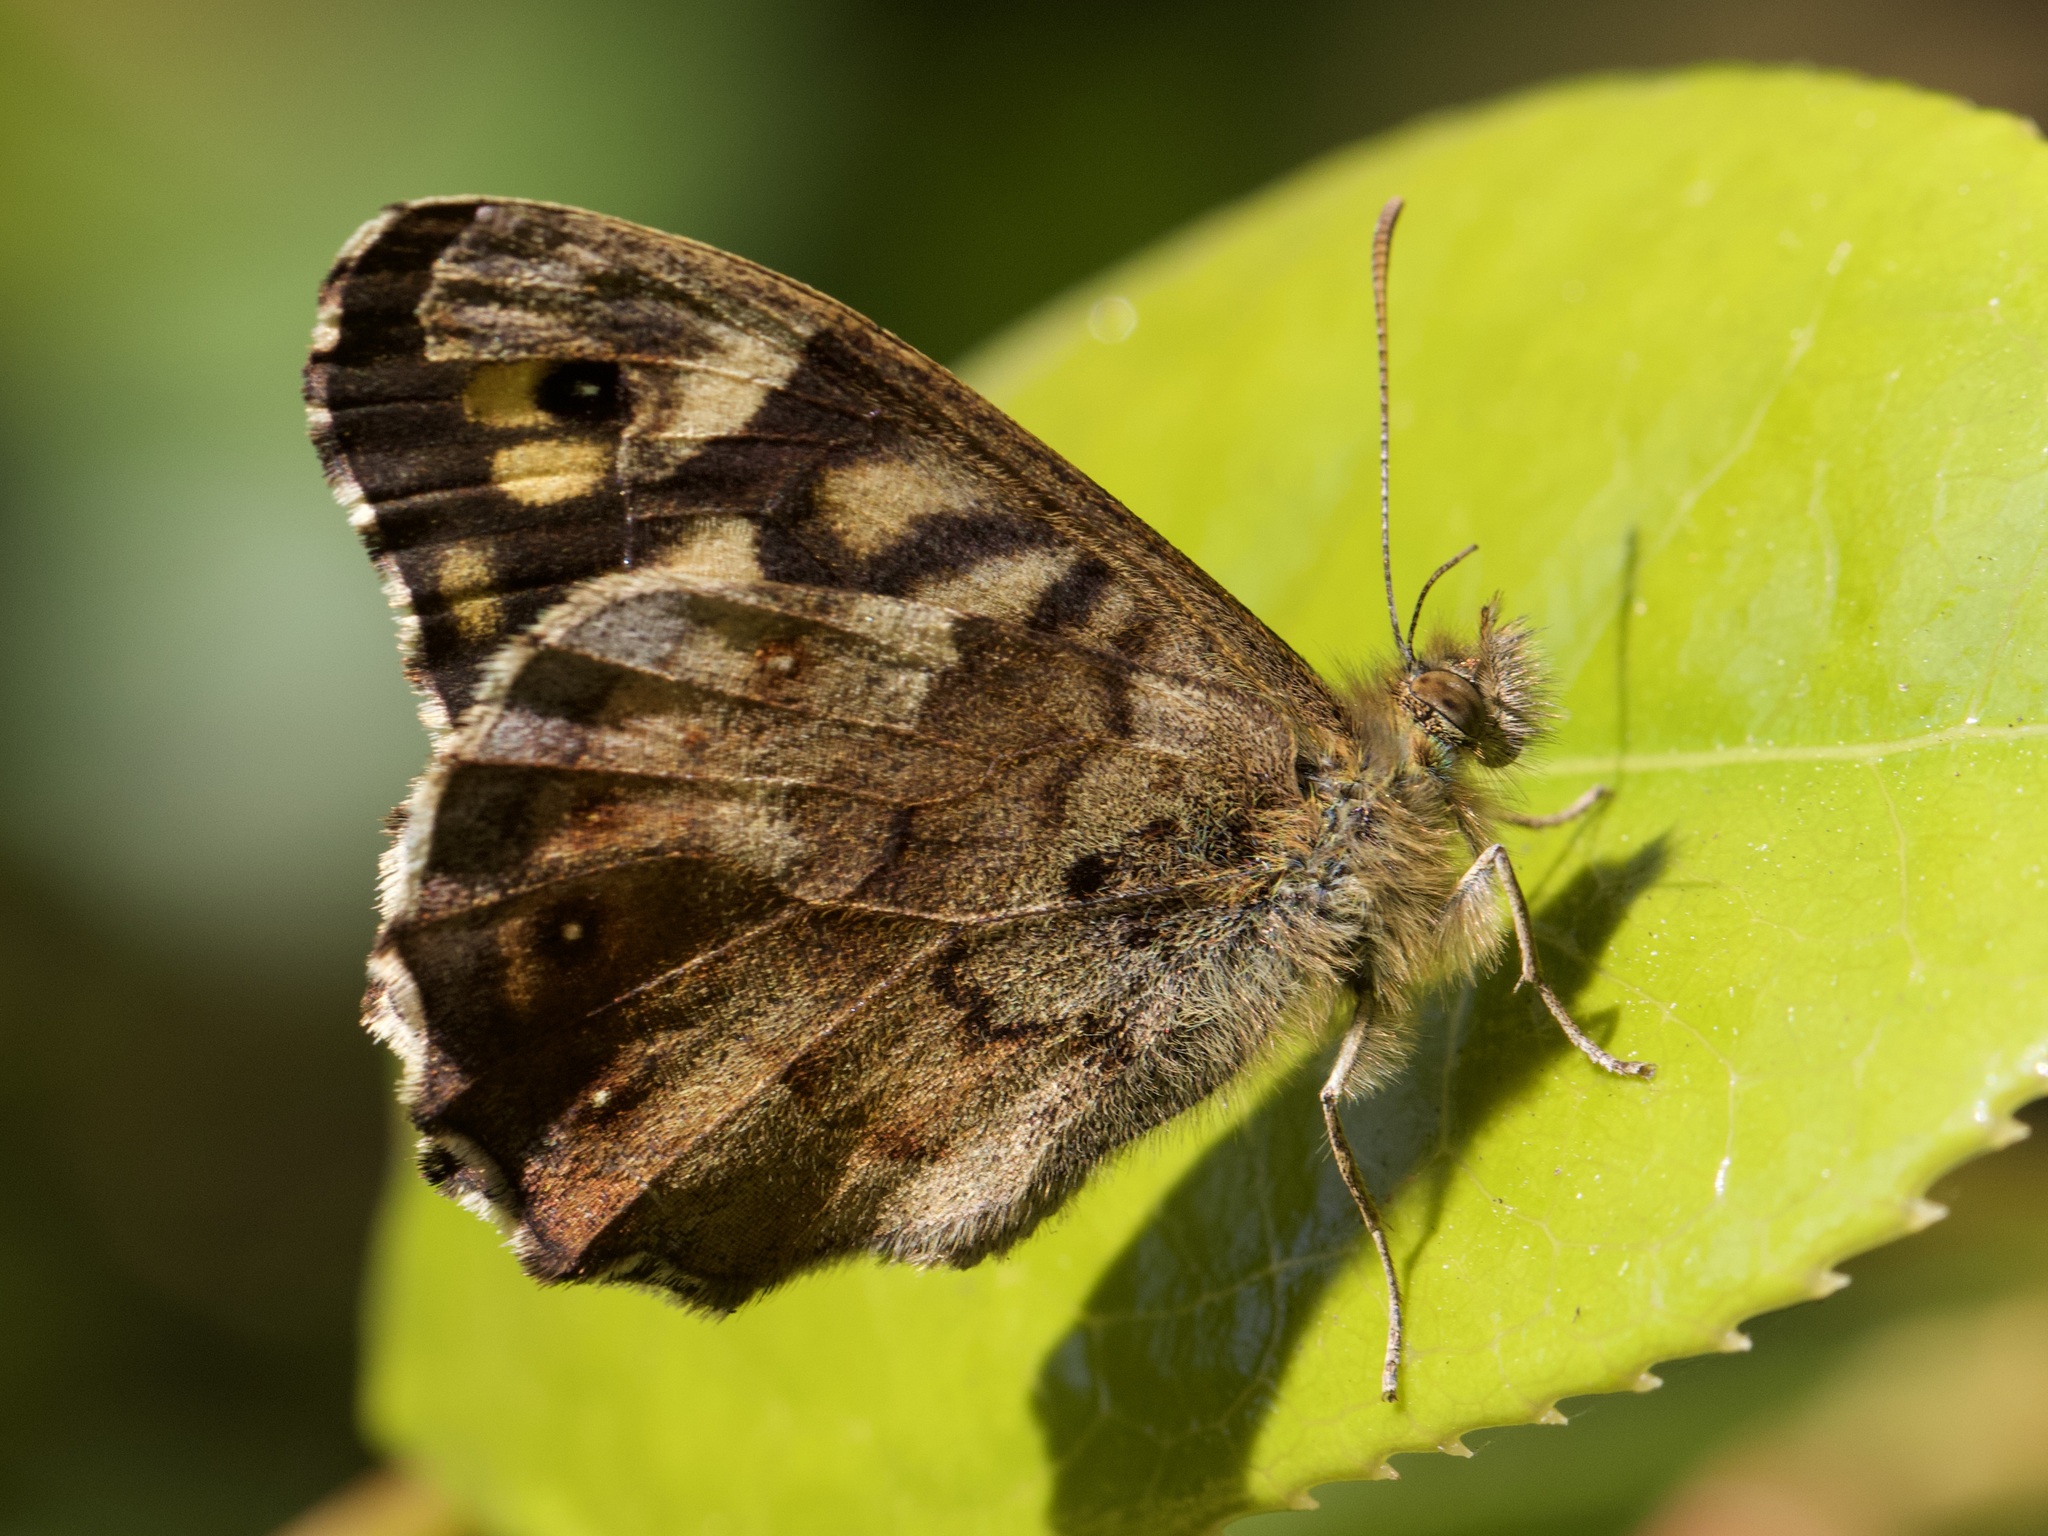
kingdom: Animalia
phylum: Arthropoda
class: Insecta
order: Lepidoptera
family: Nymphalidae
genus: Pararge
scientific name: Pararge aegeria
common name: Speckled wood
